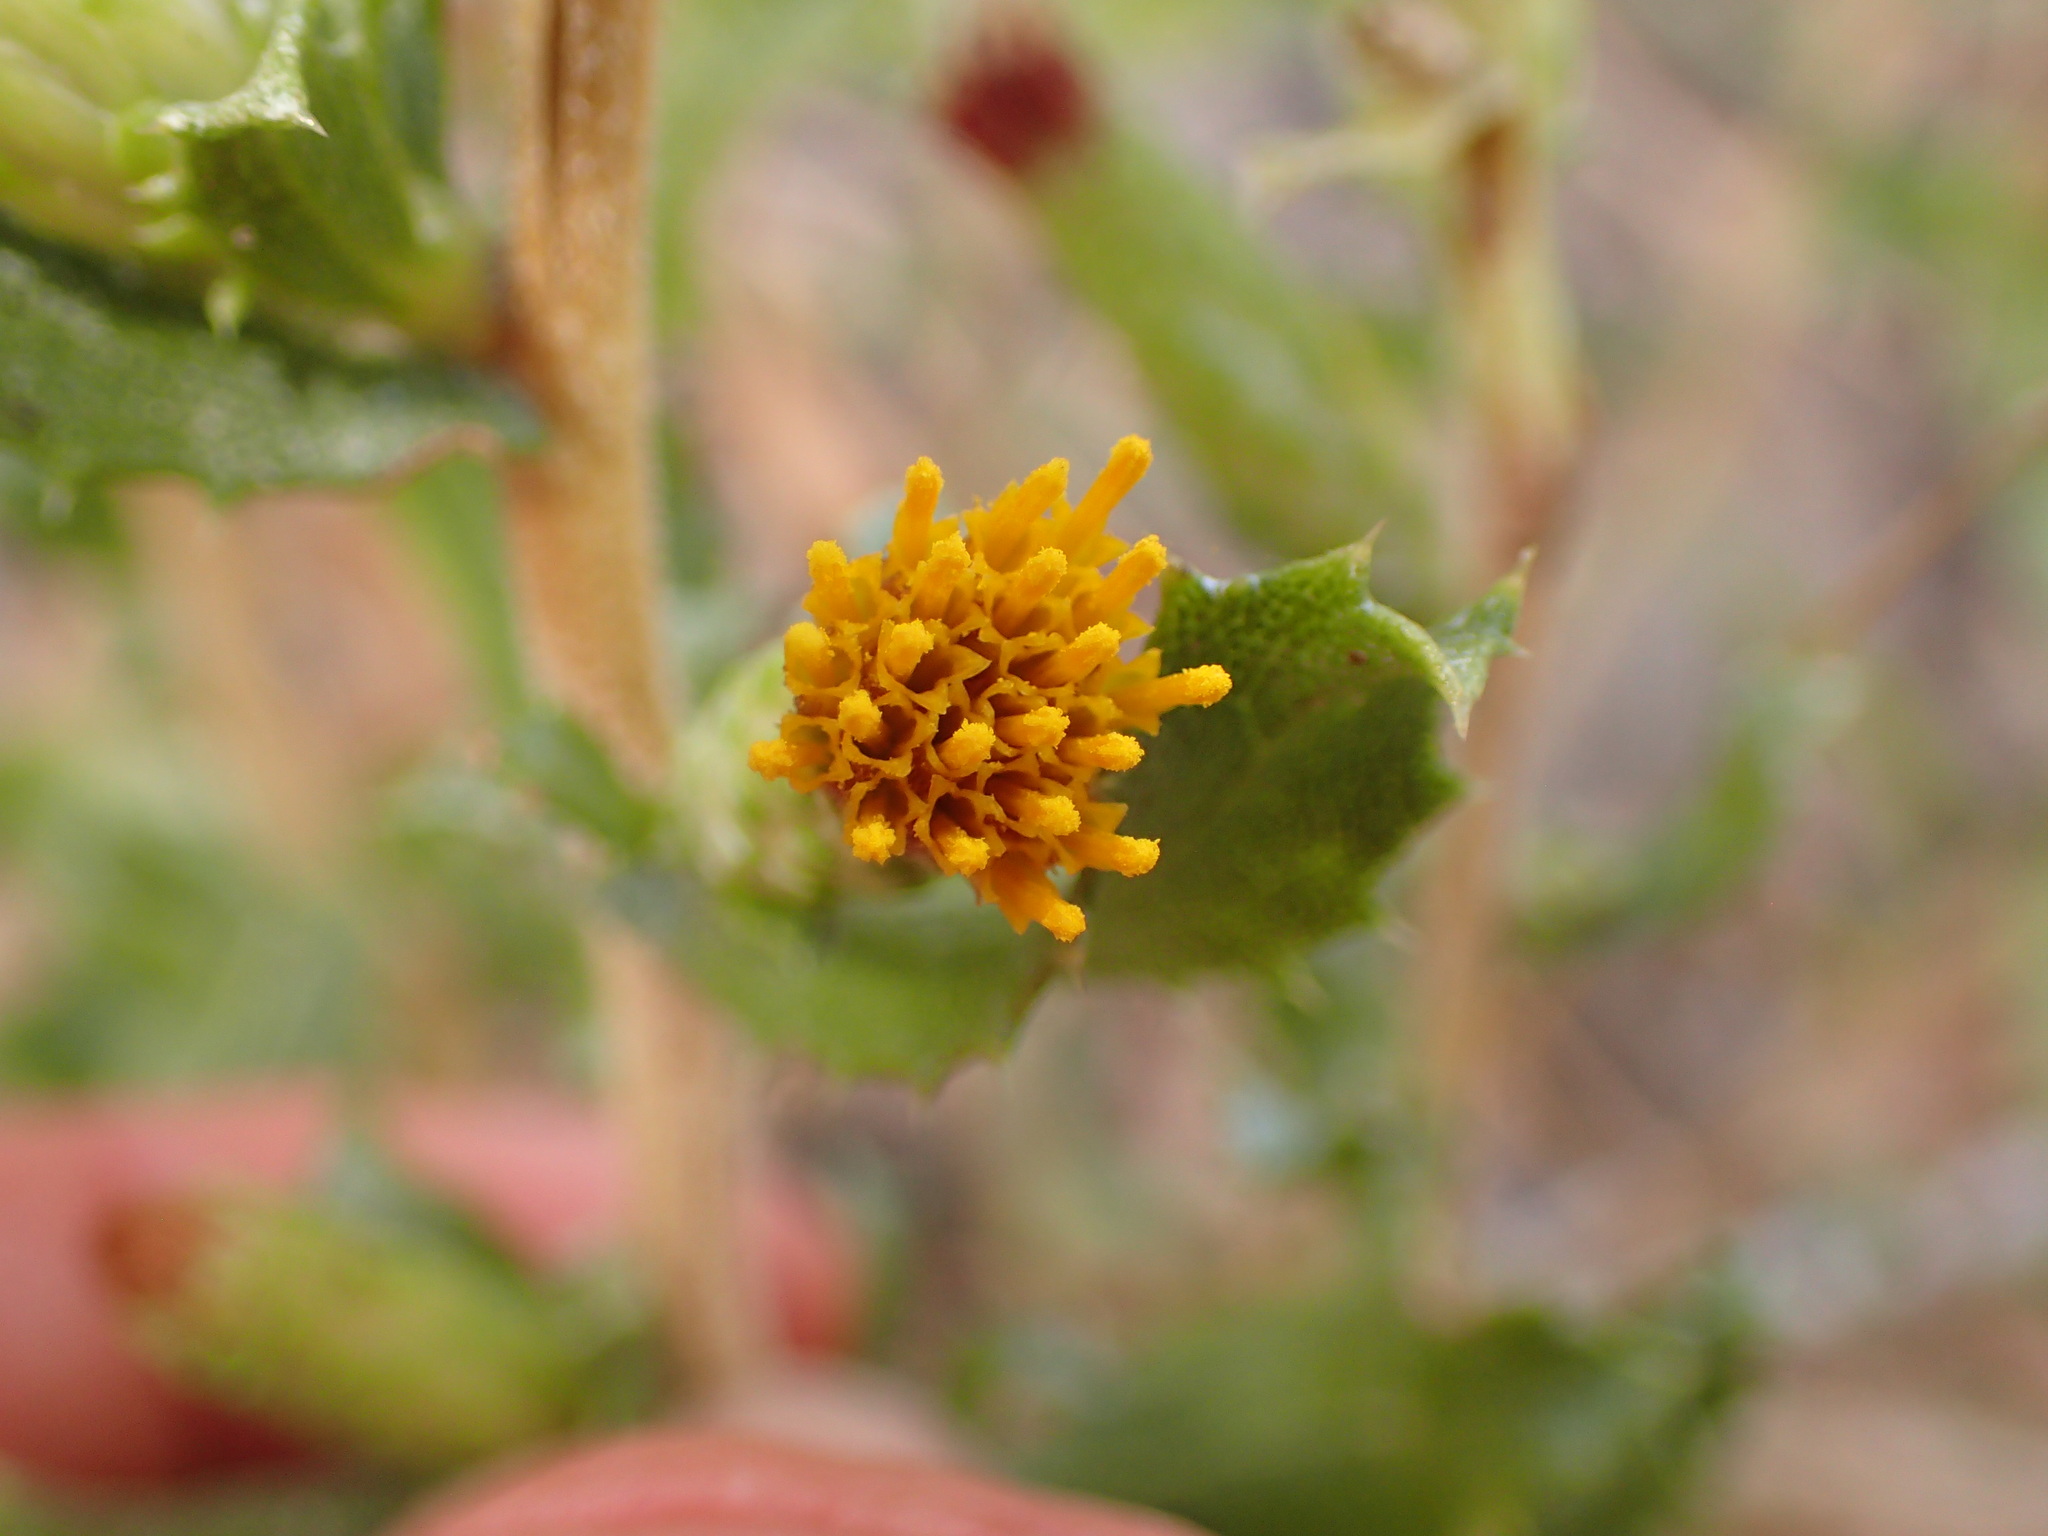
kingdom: Plantae
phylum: Tracheophyta
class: Magnoliopsida
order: Asterales
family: Asteraceae
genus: Hazardia
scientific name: Hazardia squarrosa
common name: Saw-tooth goldenbush
